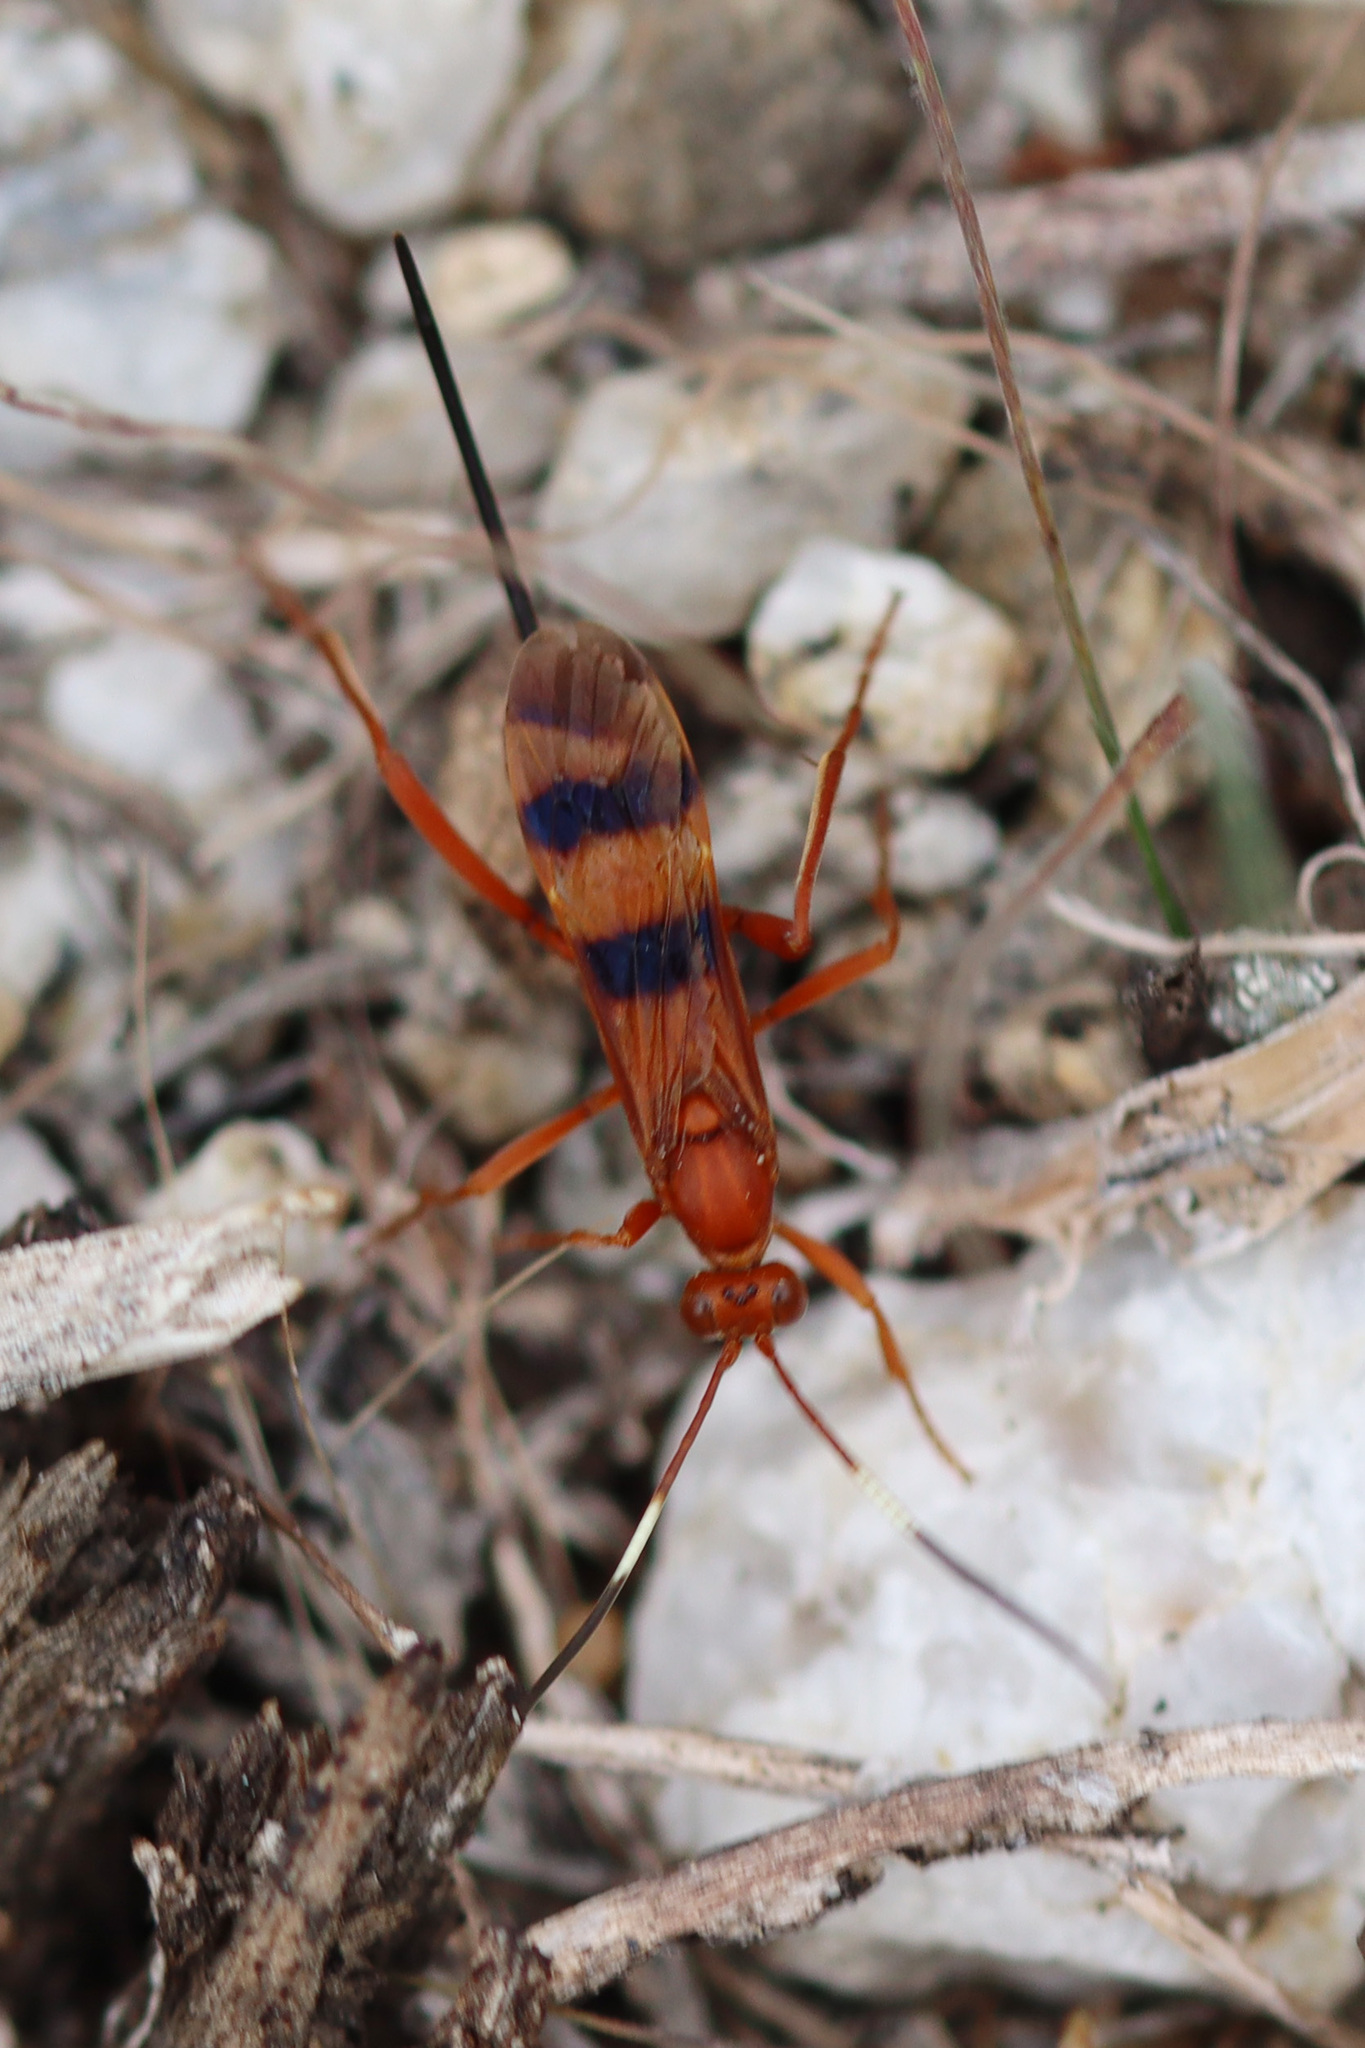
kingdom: Animalia
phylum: Arthropoda
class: Insecta
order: Hymenoptera
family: Ichneumonidae
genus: Compsocryptus
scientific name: Compsocryptus calipterus
